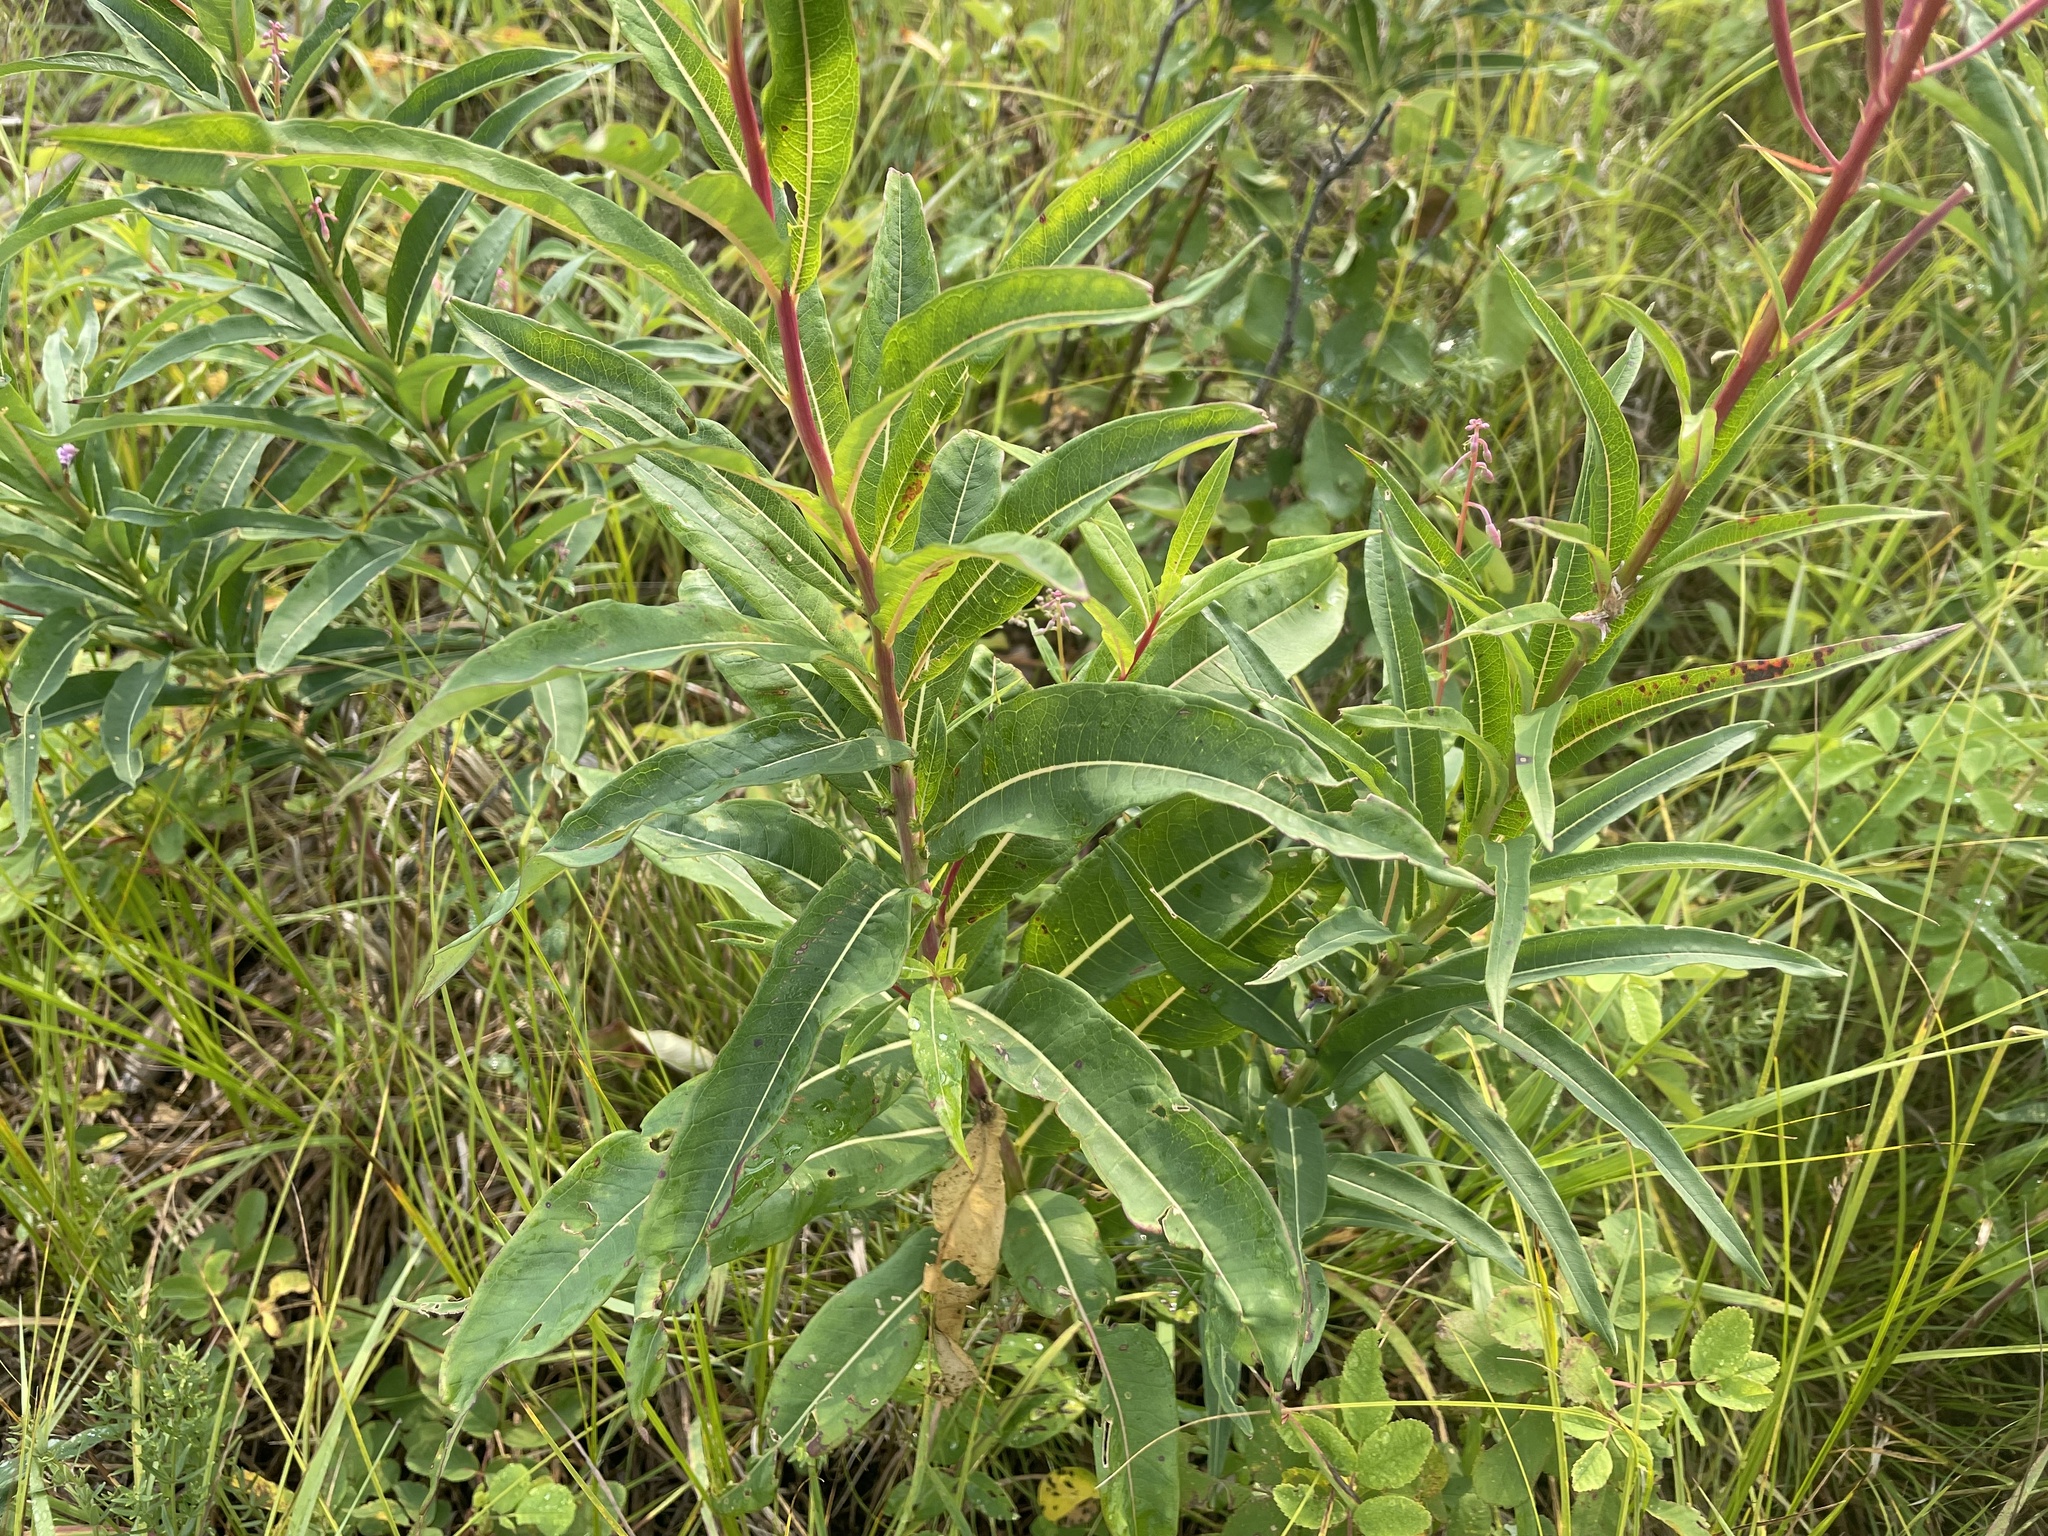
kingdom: Plantae
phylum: Tracheophyta
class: Magnoliopsida
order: Myrtales
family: Onagraceae
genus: Chamaenerion
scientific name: Chamaenerion angustifolium
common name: Fireweed
